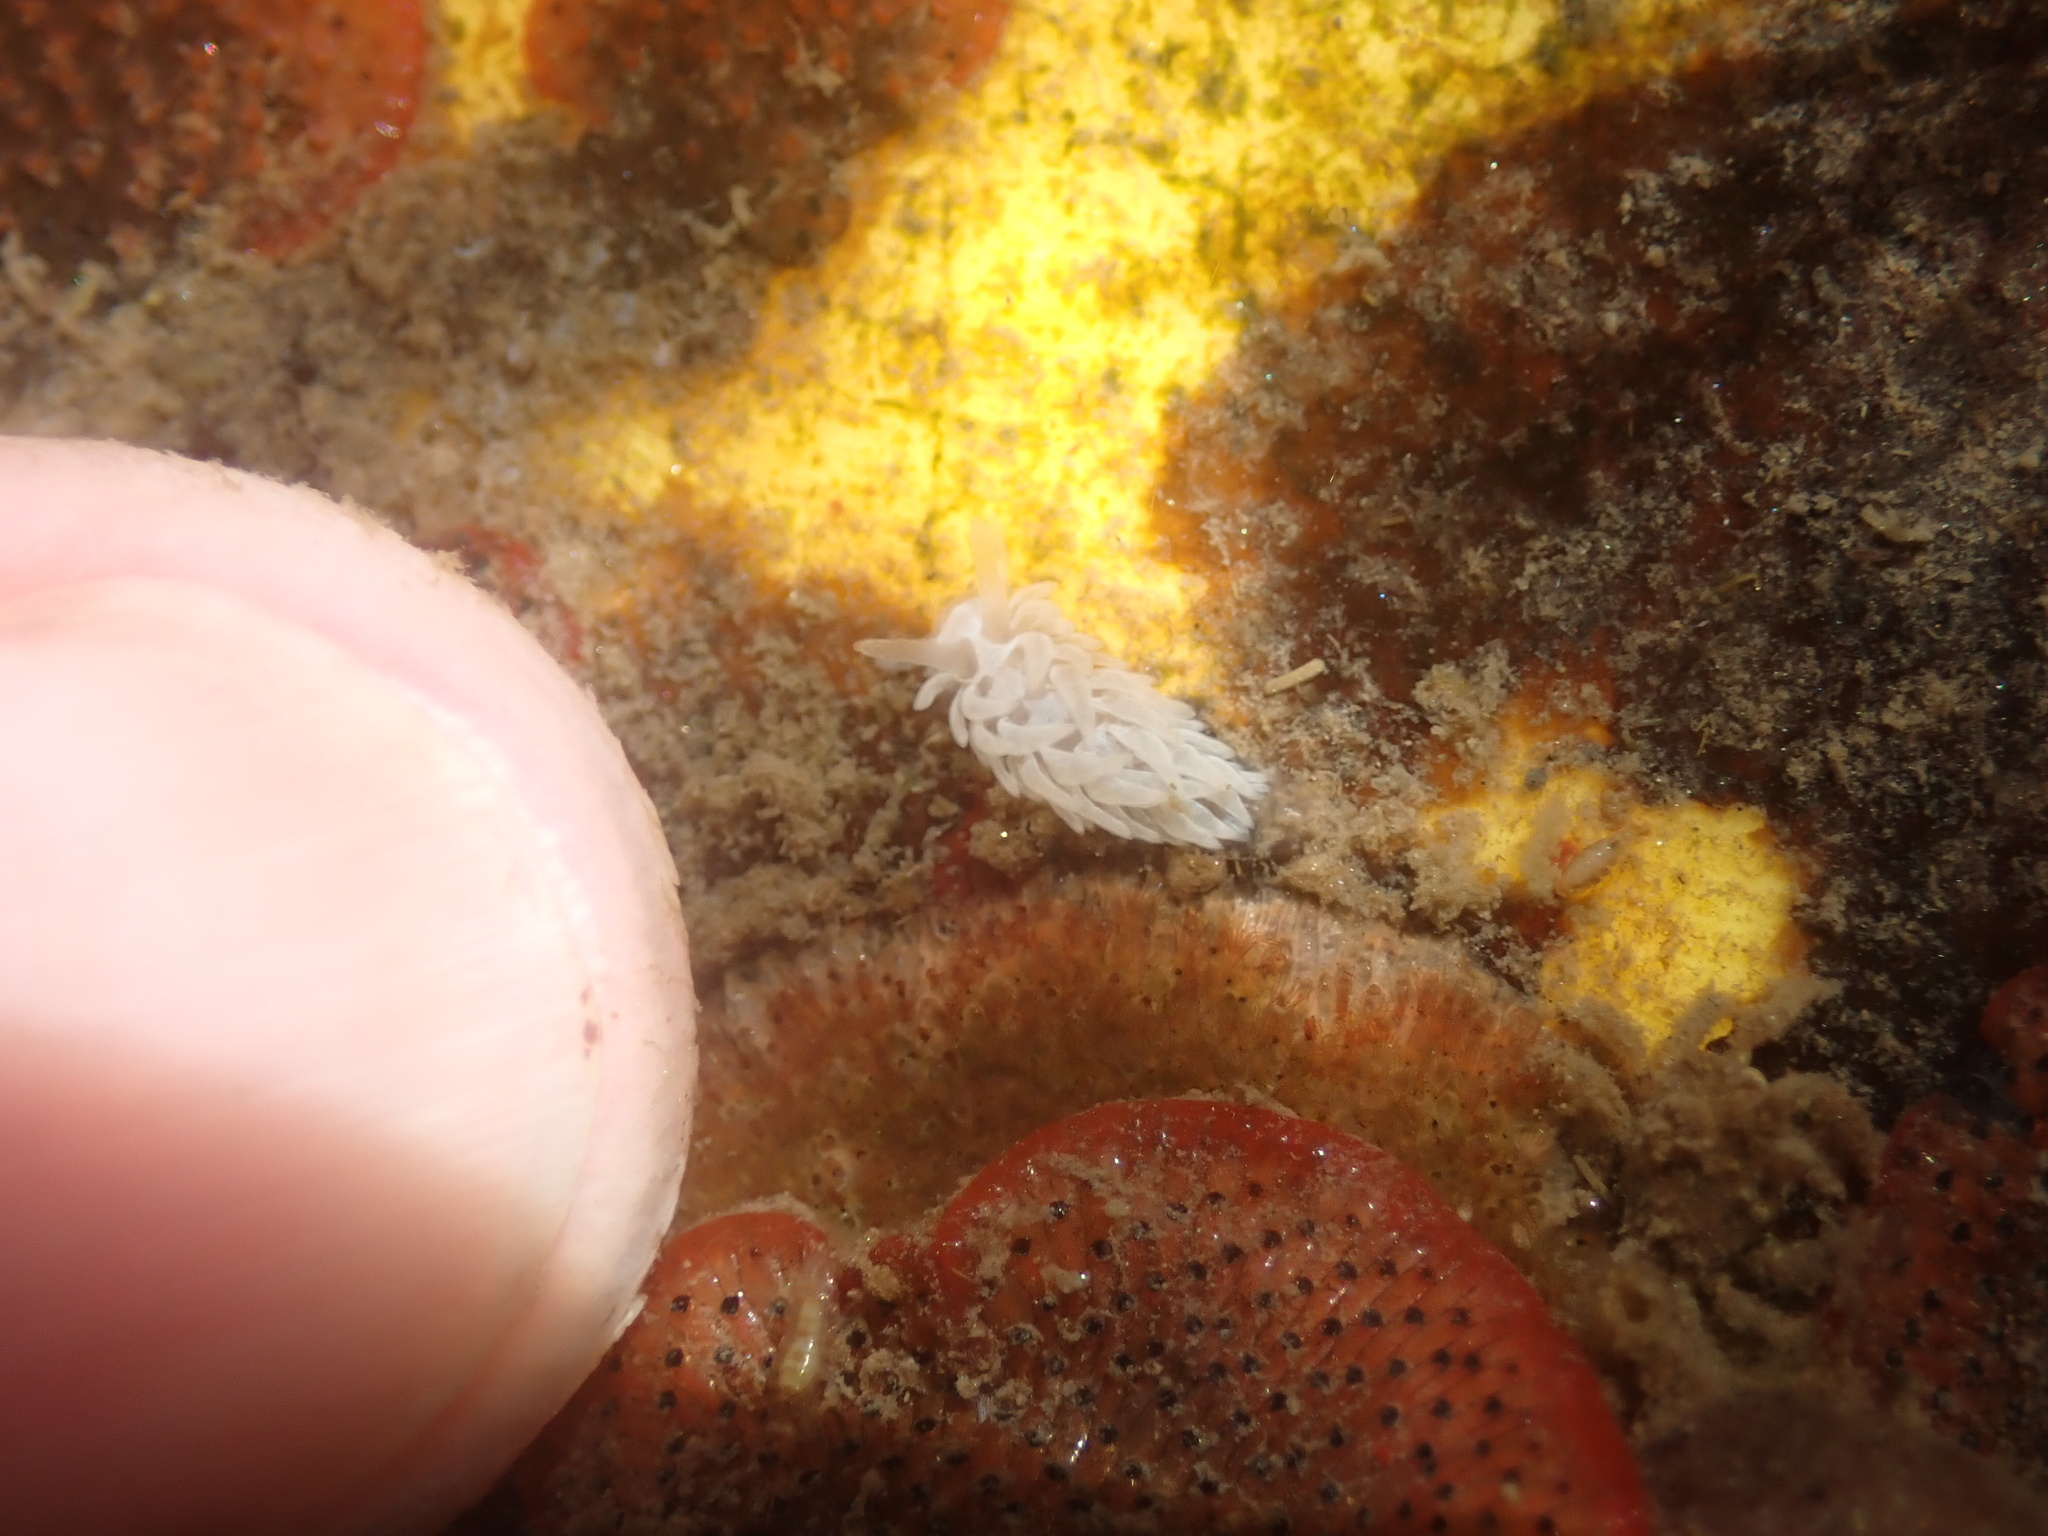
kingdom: Animalia
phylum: Mollusca
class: Gastropoda
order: Nudibranchia
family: Aeolidiidae
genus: Aeolidia
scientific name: Aeolidia loui
